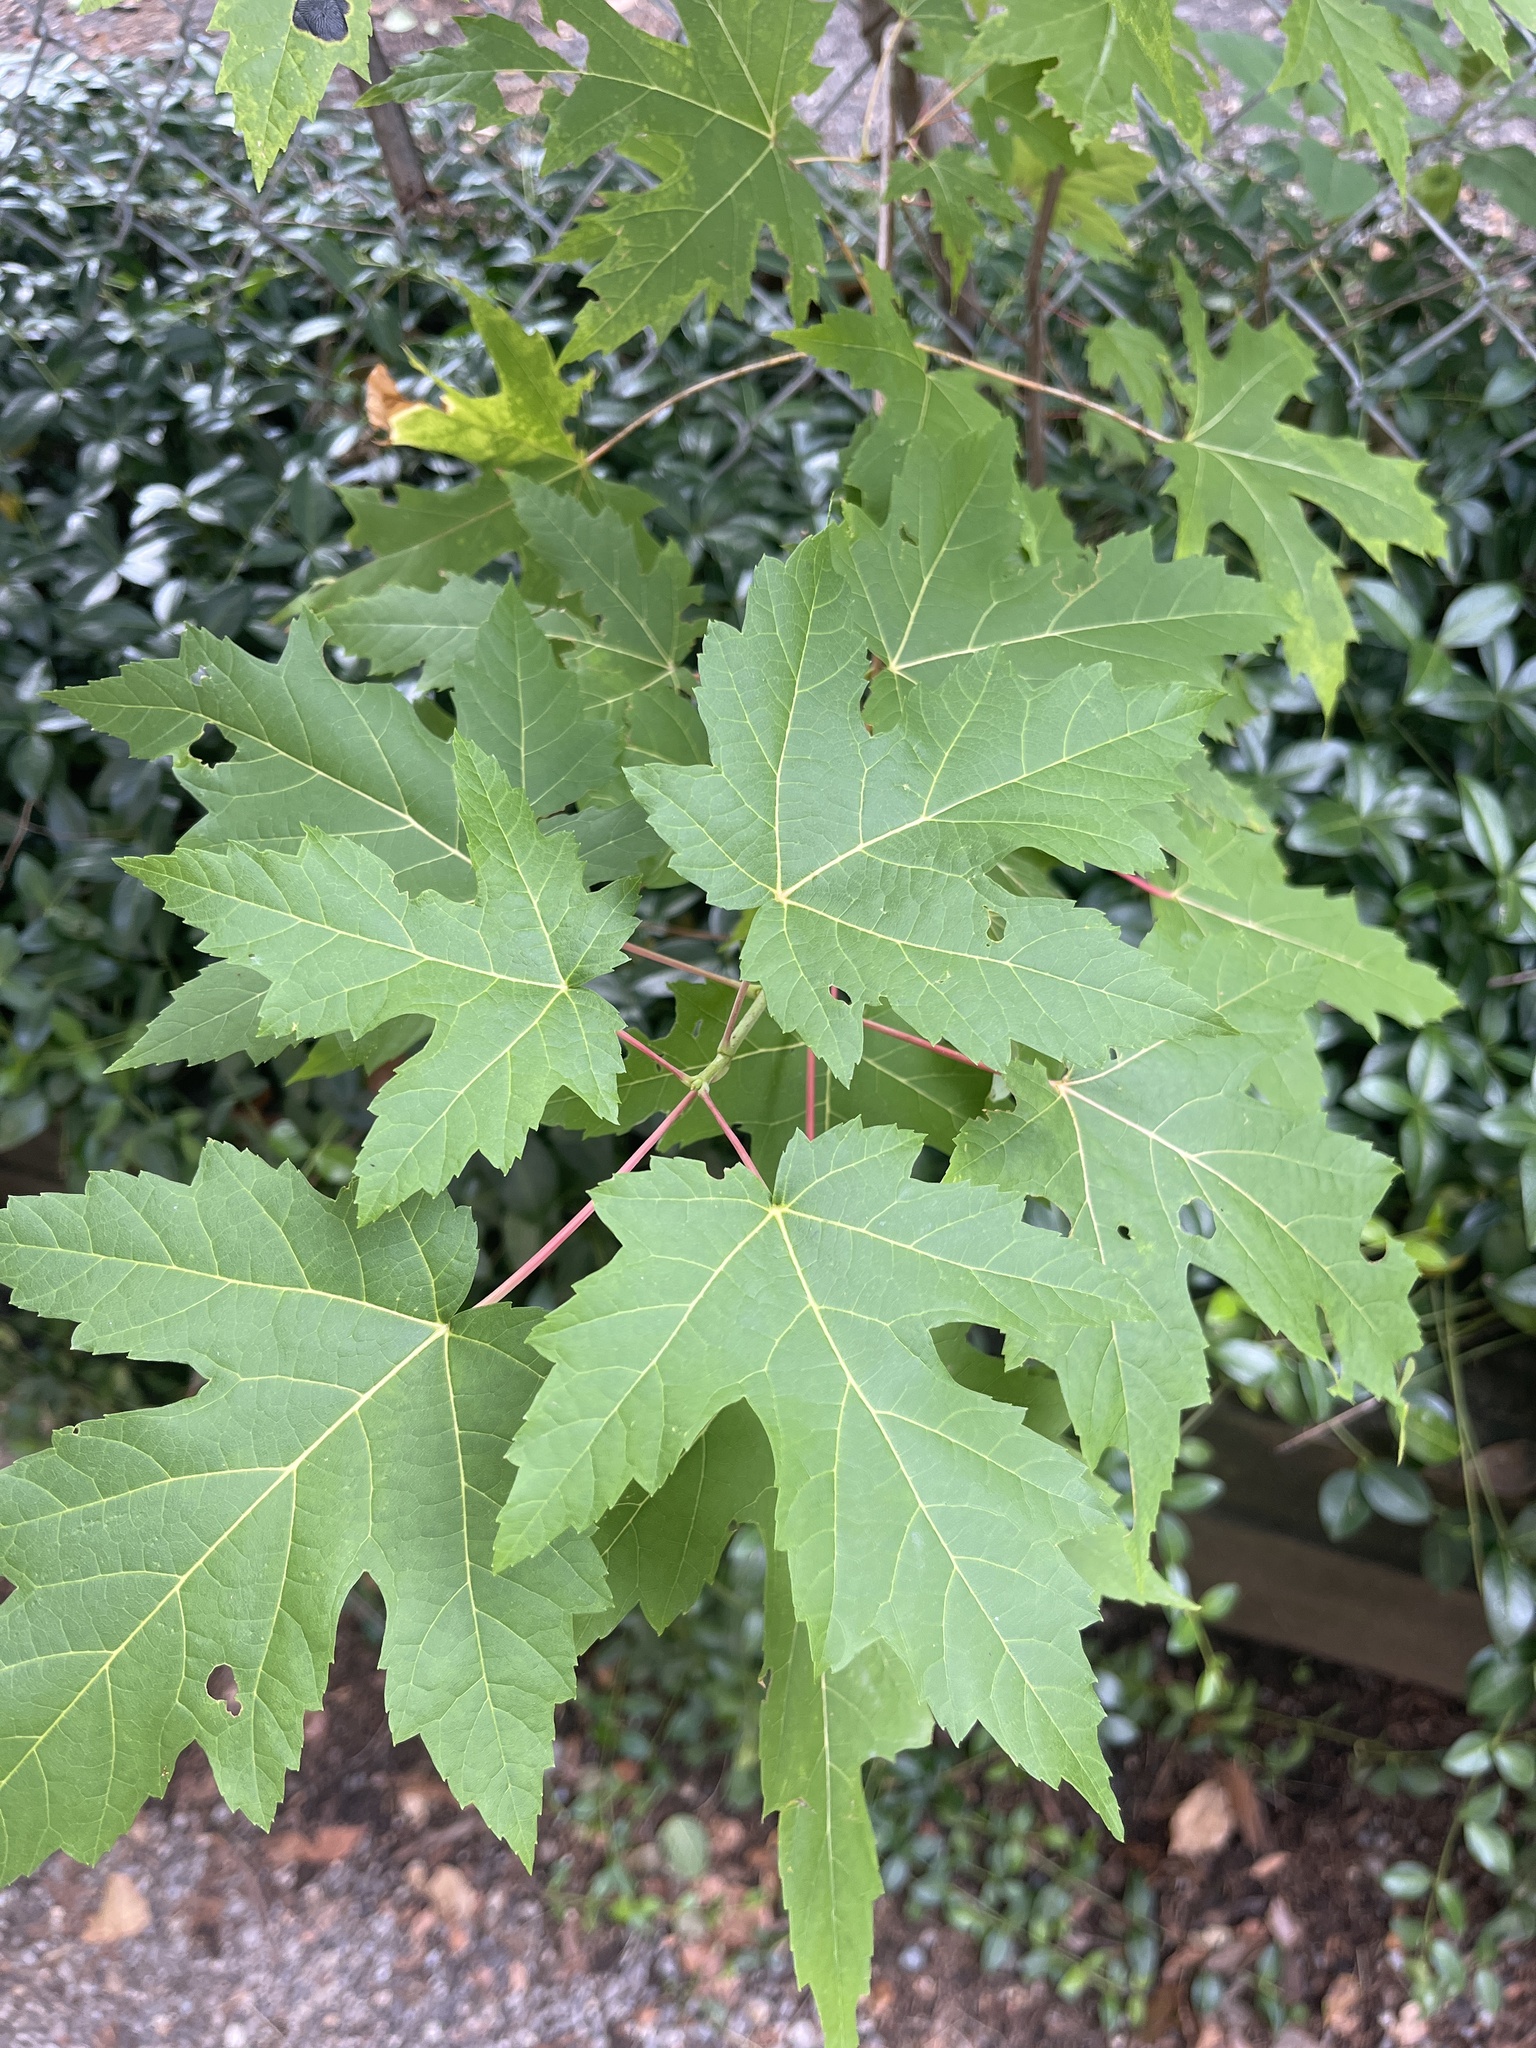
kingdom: Plantae
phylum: Tracheophyta
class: Magnoliopsida
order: Sapindales
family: Sapindaceae
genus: Acer
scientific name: Acer saccharinum
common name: Silver maple
